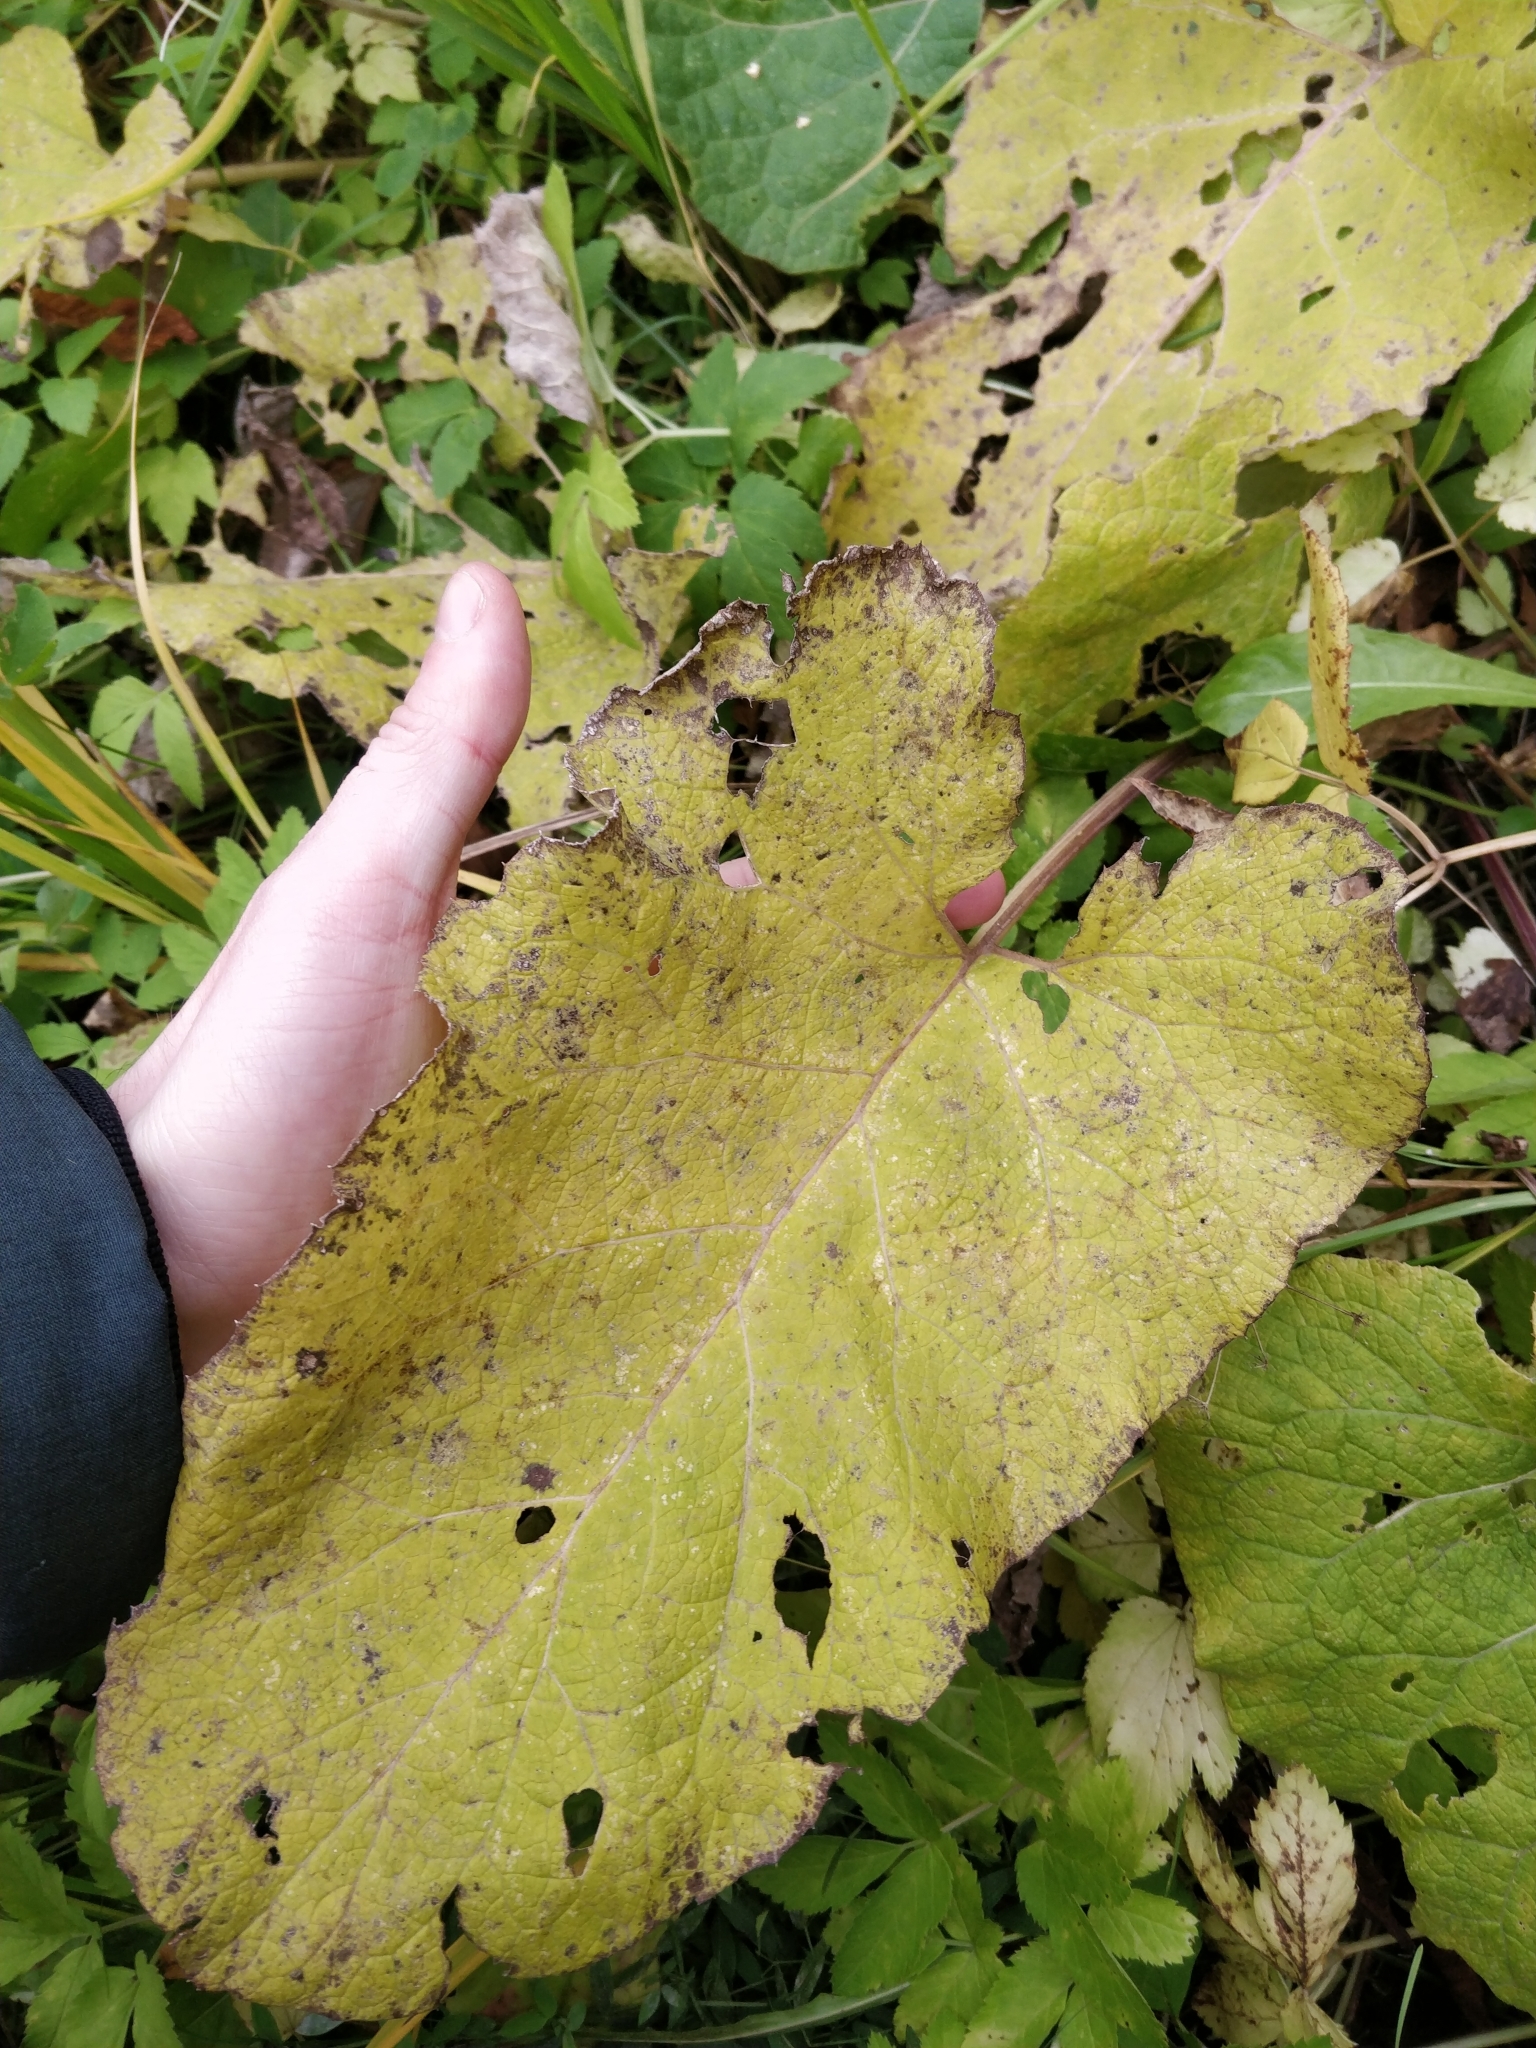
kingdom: Plantae
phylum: Tracheophyta
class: Magnoliopsida
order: Asterales
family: Asteraceae
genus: Arctium
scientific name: Arctium
